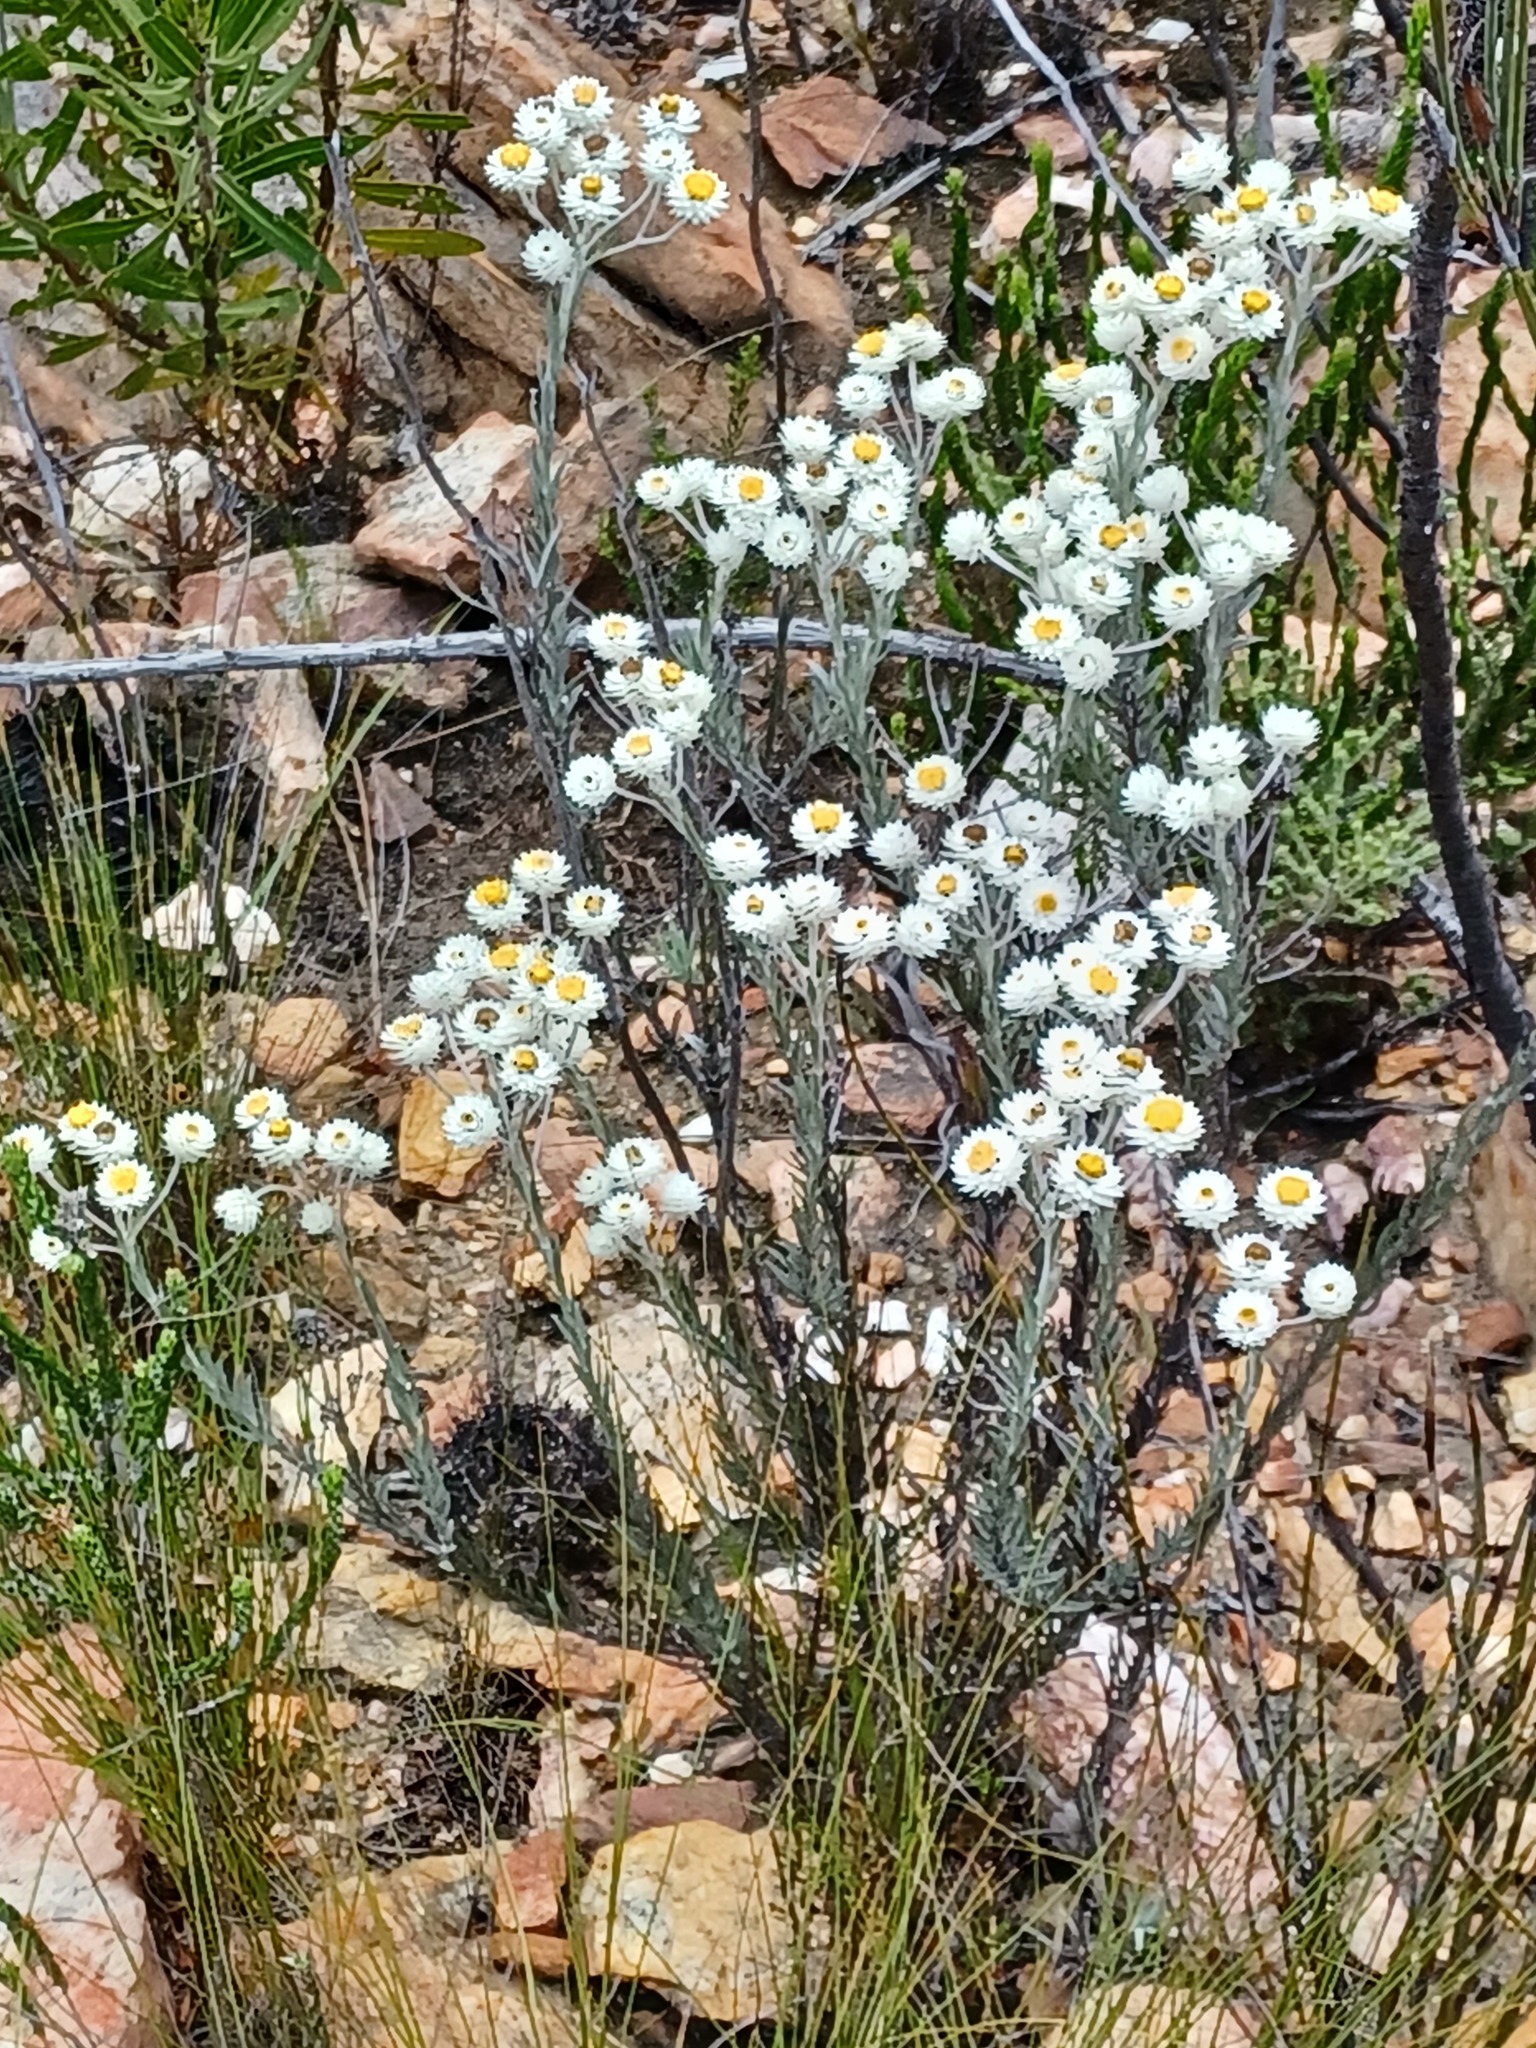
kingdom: Plantae
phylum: Tracheophyta
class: Magnoliopsida
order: Asterales
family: Asteraceae
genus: Achyranthemum
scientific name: Achyranthemum paniculatum
